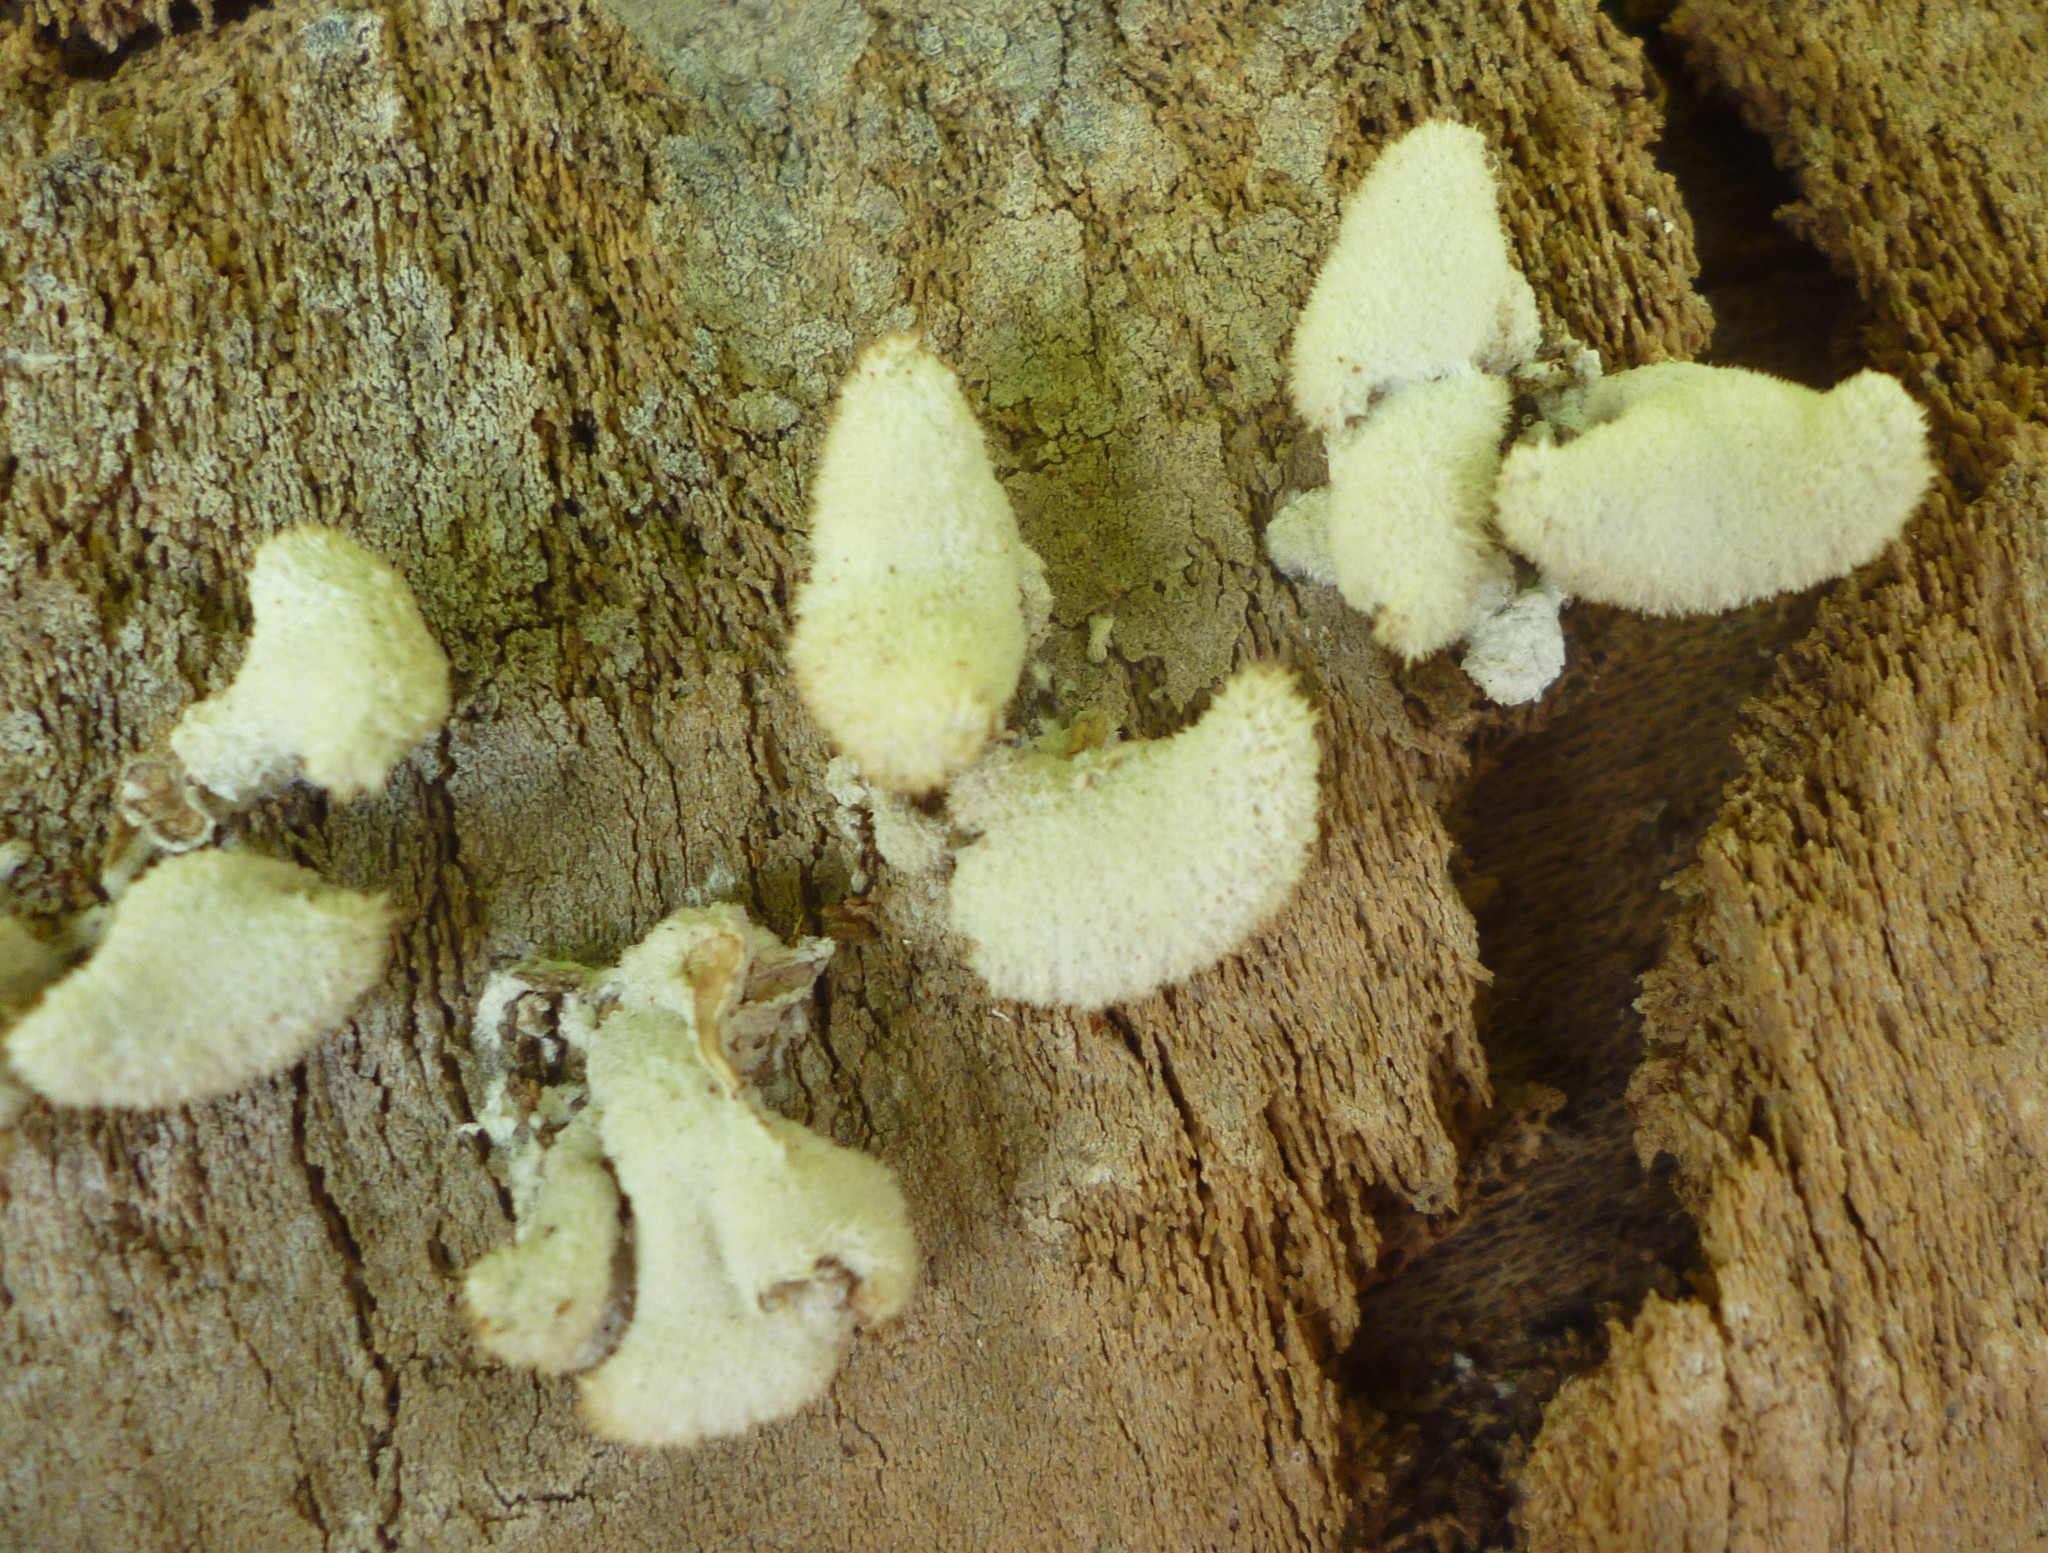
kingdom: Fungi
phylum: Basidiomycota
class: Agaricomycetes
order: Agaricales
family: Schizophyllaceae
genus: Schizophyllum
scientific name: Schizophyllum commune
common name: Common porecrust
